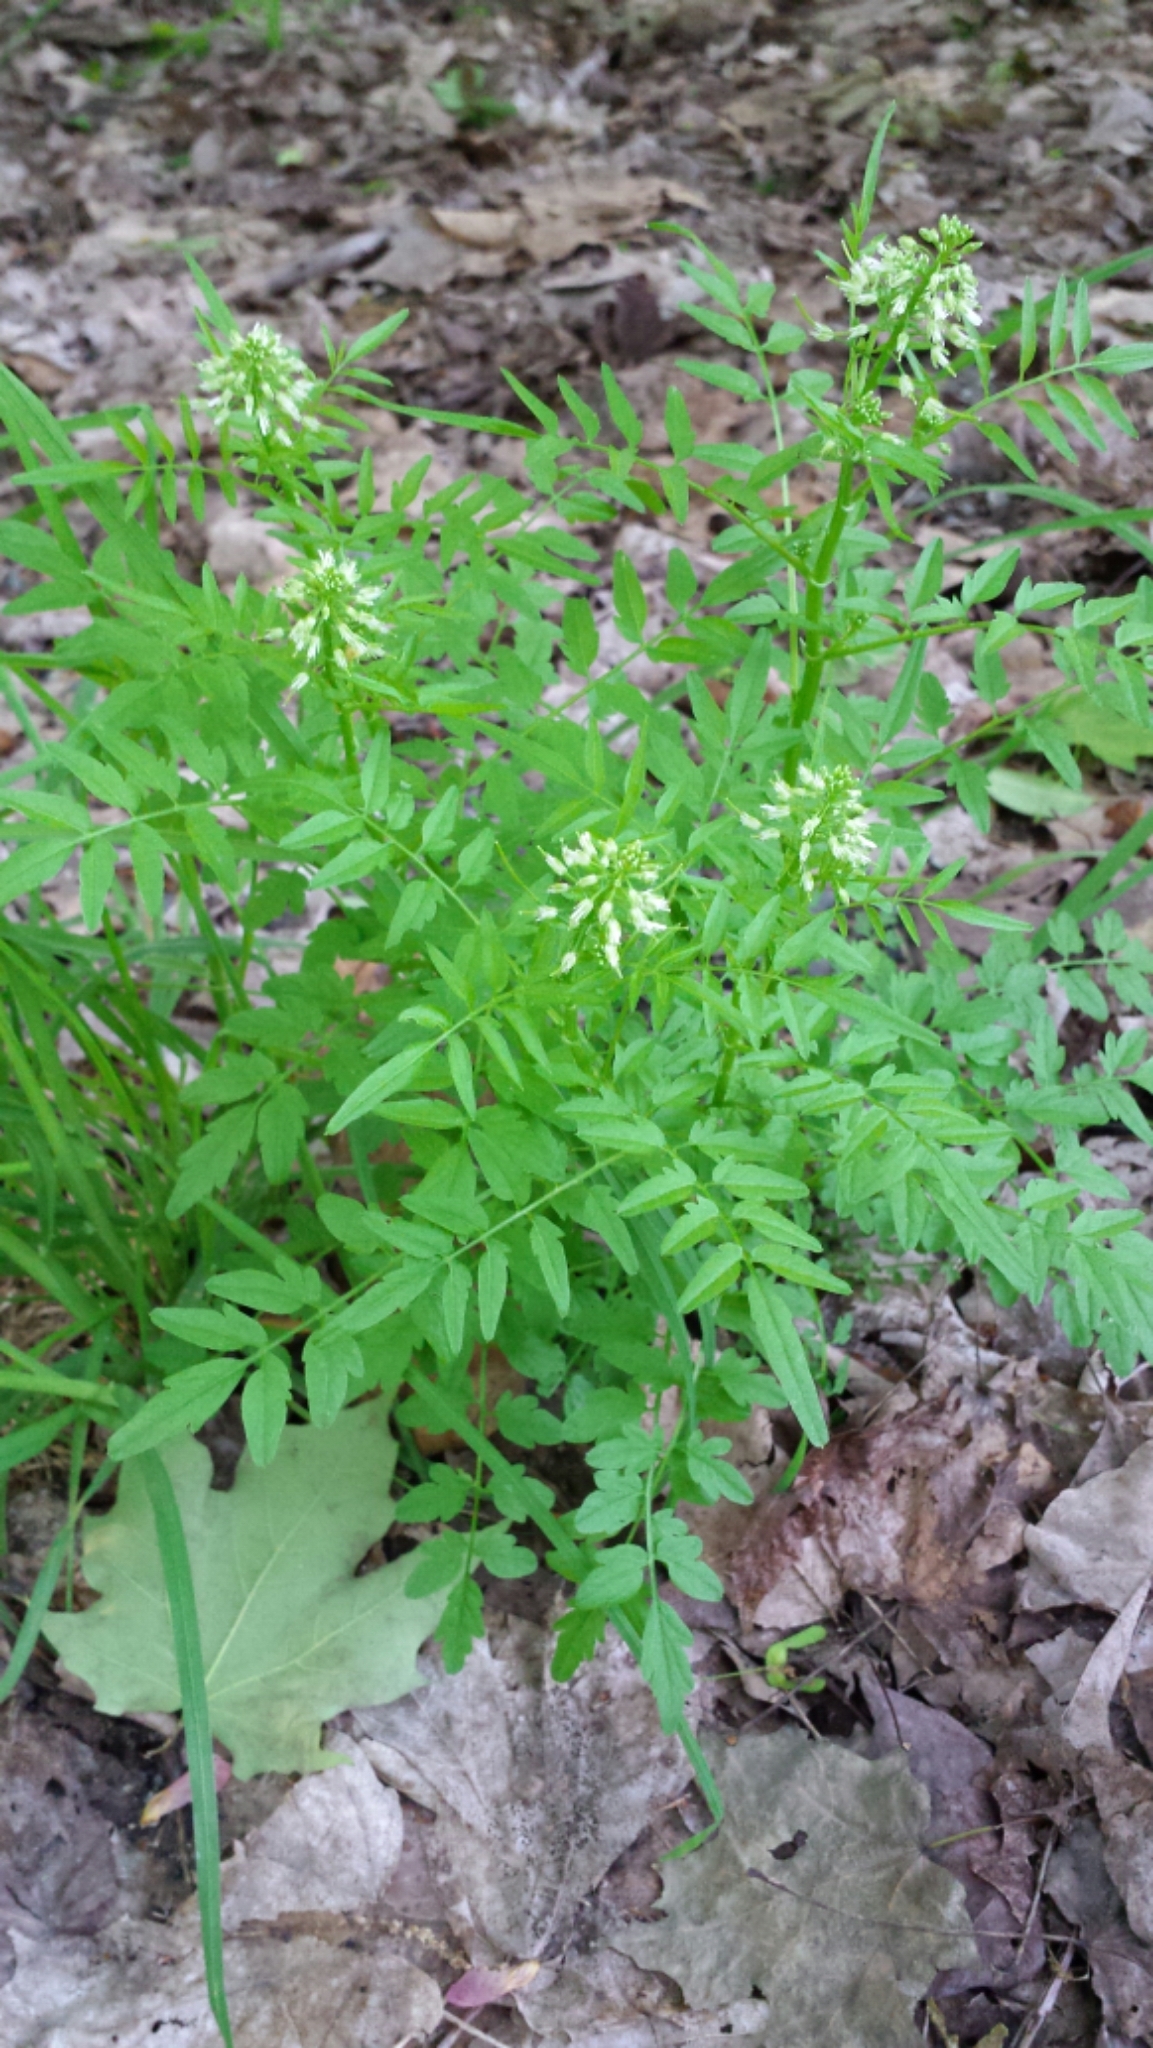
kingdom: Plantae
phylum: Tracheophyta
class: Magnoliopsida
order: Brassicales
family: Brassicaceae
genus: Cardamine
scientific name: Cardamine impatiens
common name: Narrow-leaved bitter-cress
